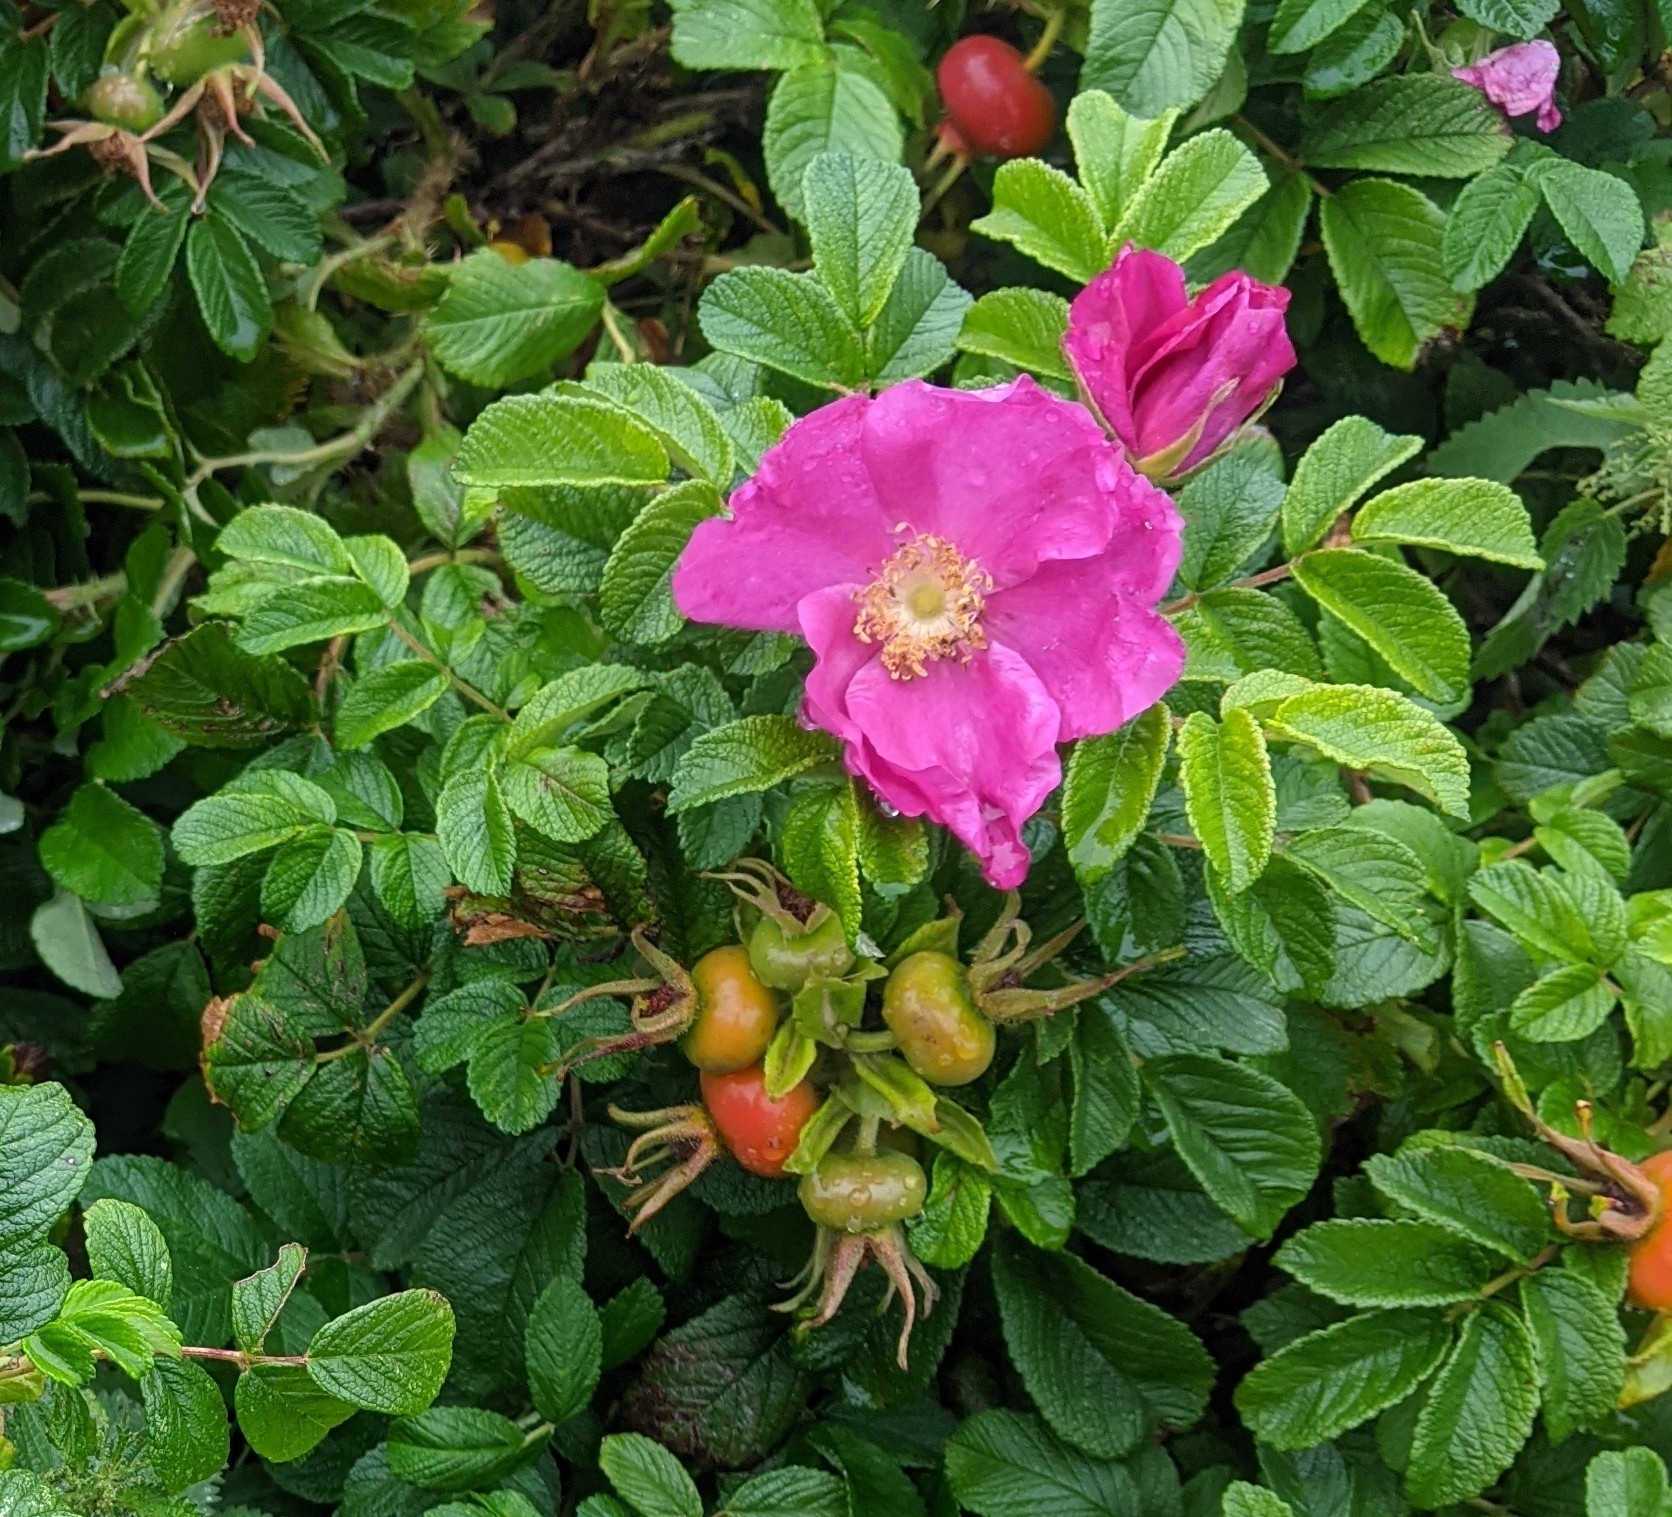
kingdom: Plantae
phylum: Tracheophyta
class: Magnoliopsida
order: Rosales
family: Rosaceae
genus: Rosa
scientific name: Rosa rugosa
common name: Japanese rose
